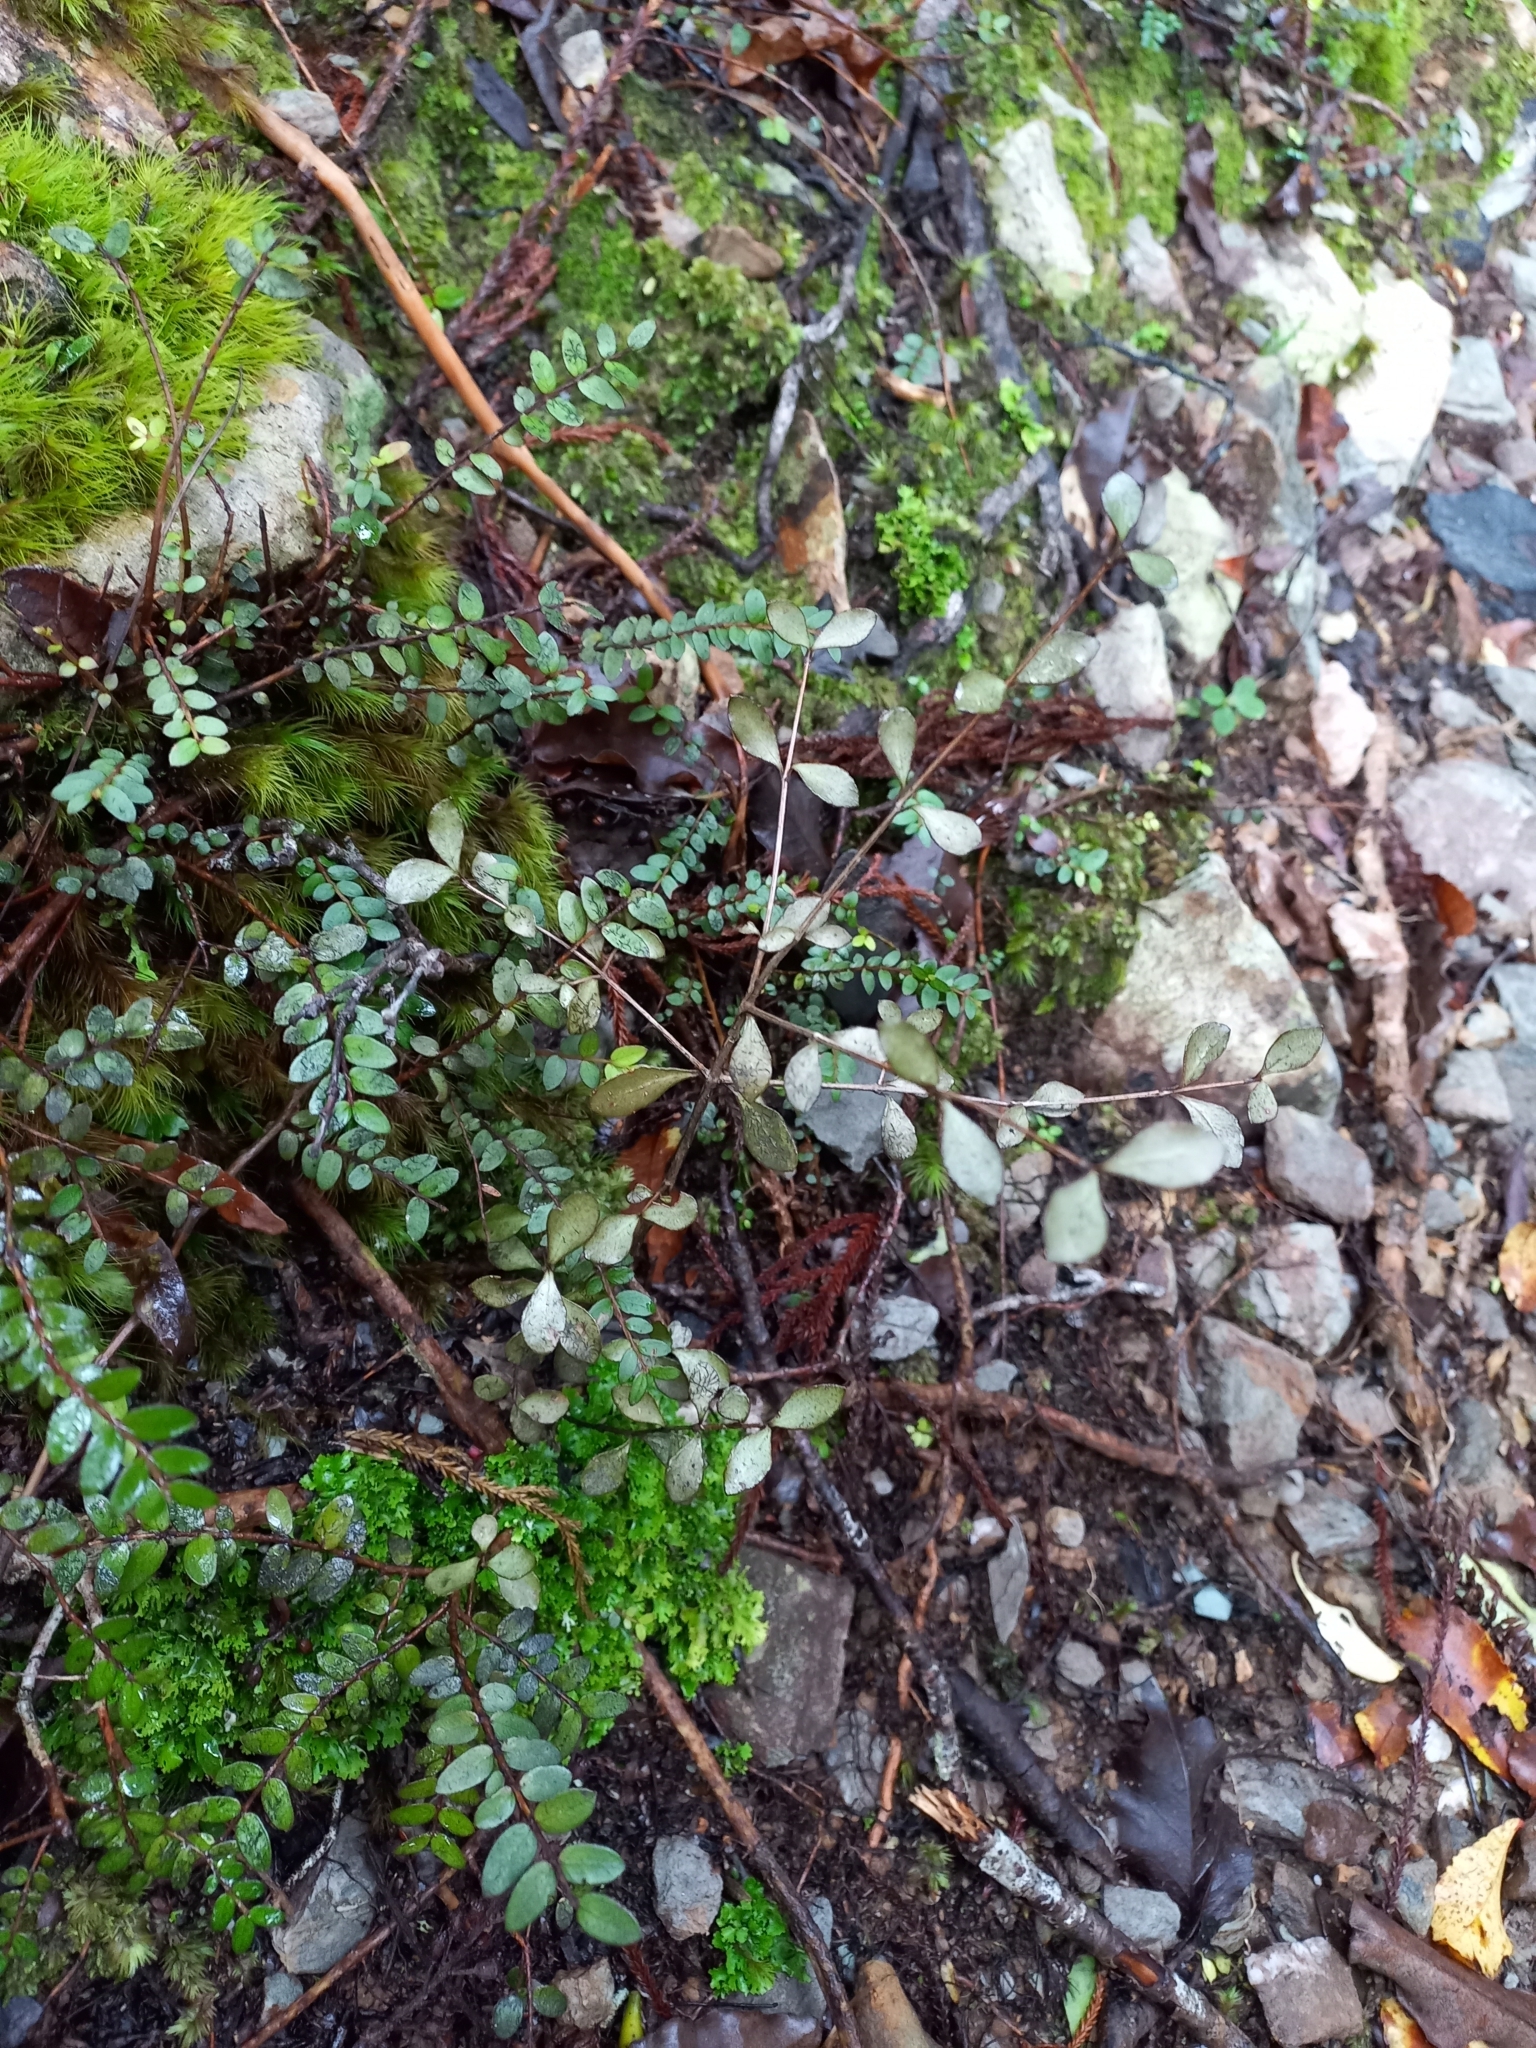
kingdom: Plantae
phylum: Tracheophyta
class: Magnoliopsida
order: Myrtales
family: Myrtaceae
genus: Neomyrtus
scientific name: Neomyrtus pedunculata
